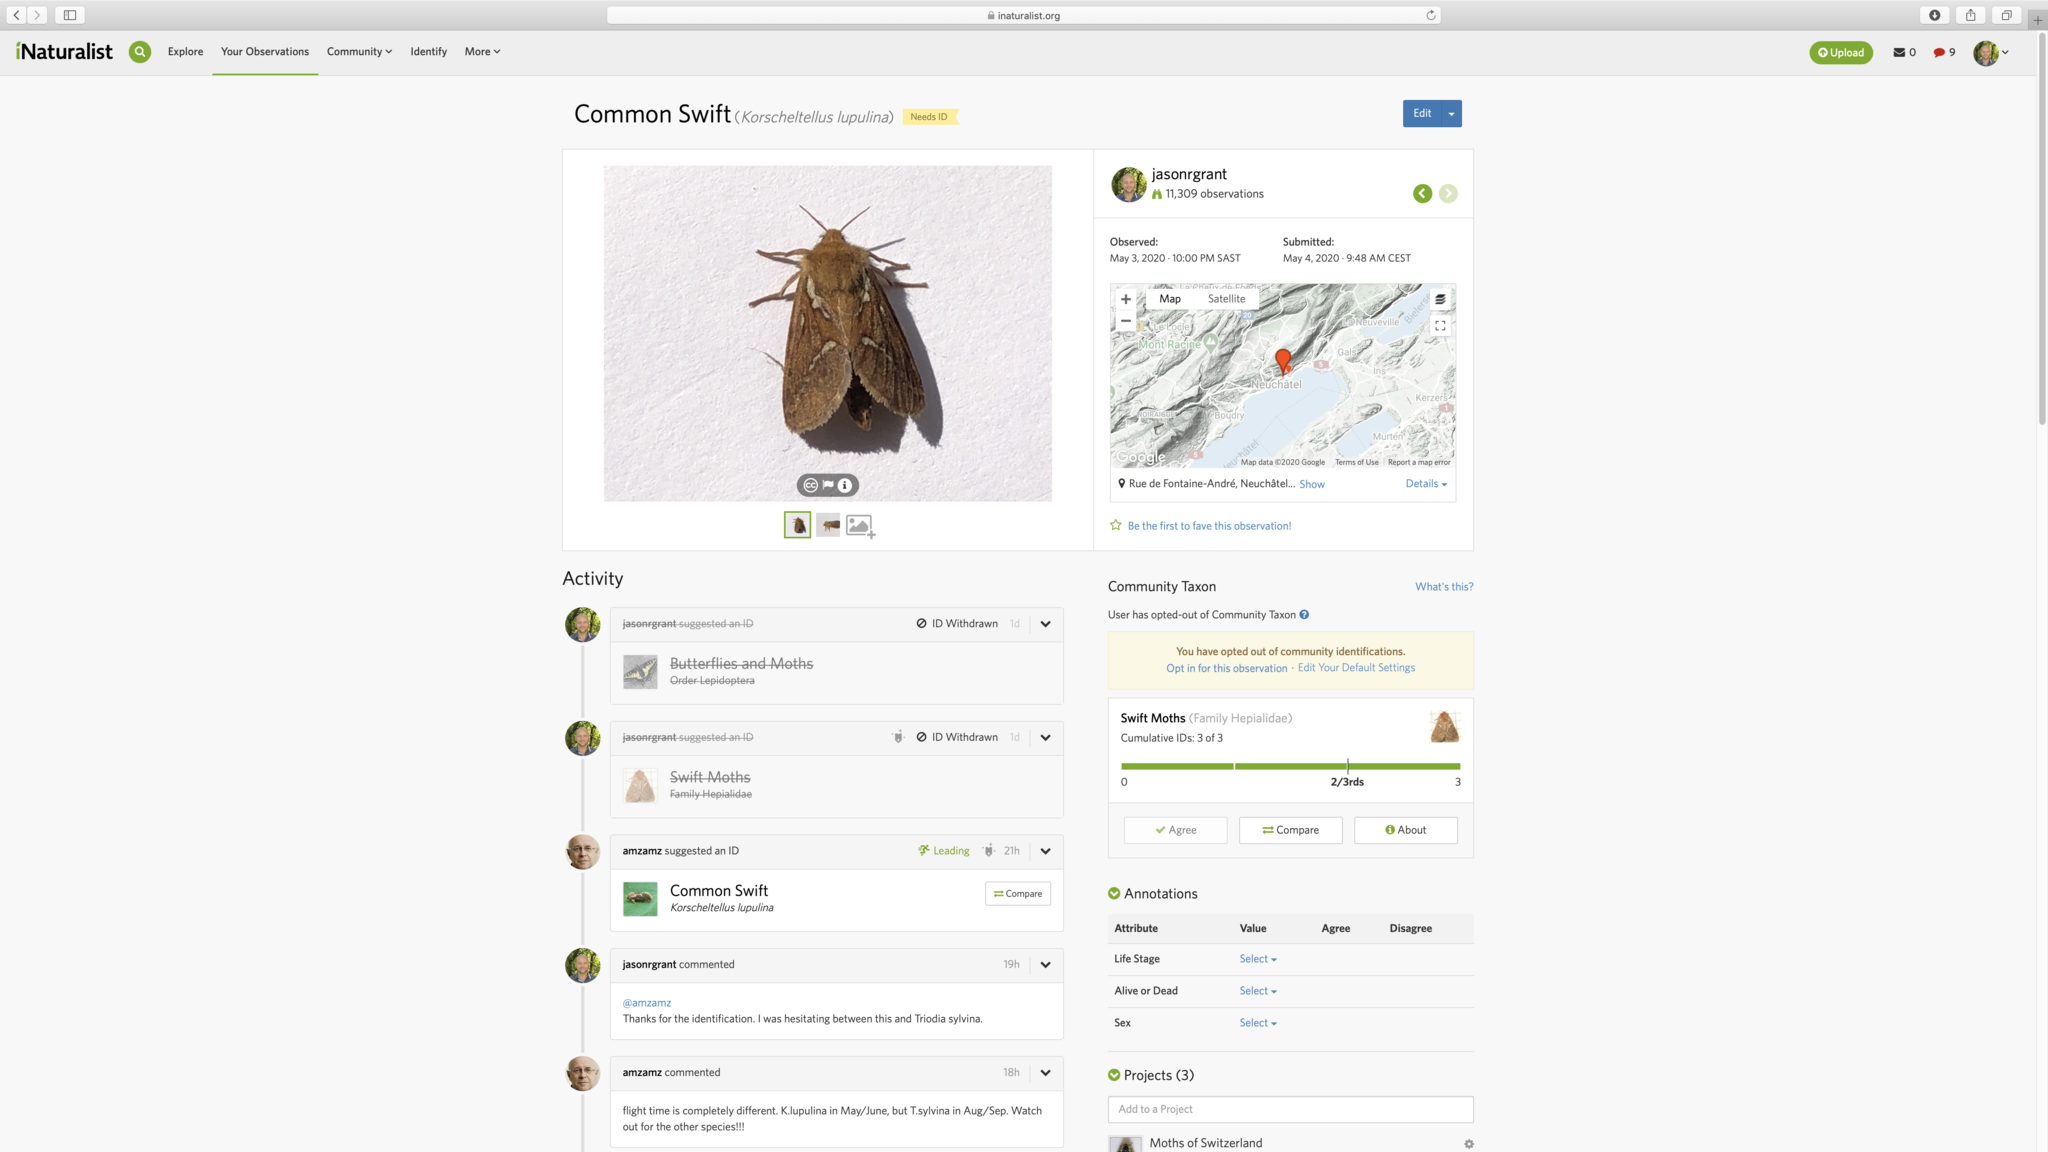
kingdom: Animalia
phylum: Arthropoda
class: Insecta
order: Lepidoptera
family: Hepialidae
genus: Korscheltellus
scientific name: Korscheltellus lupulina
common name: Common swift
